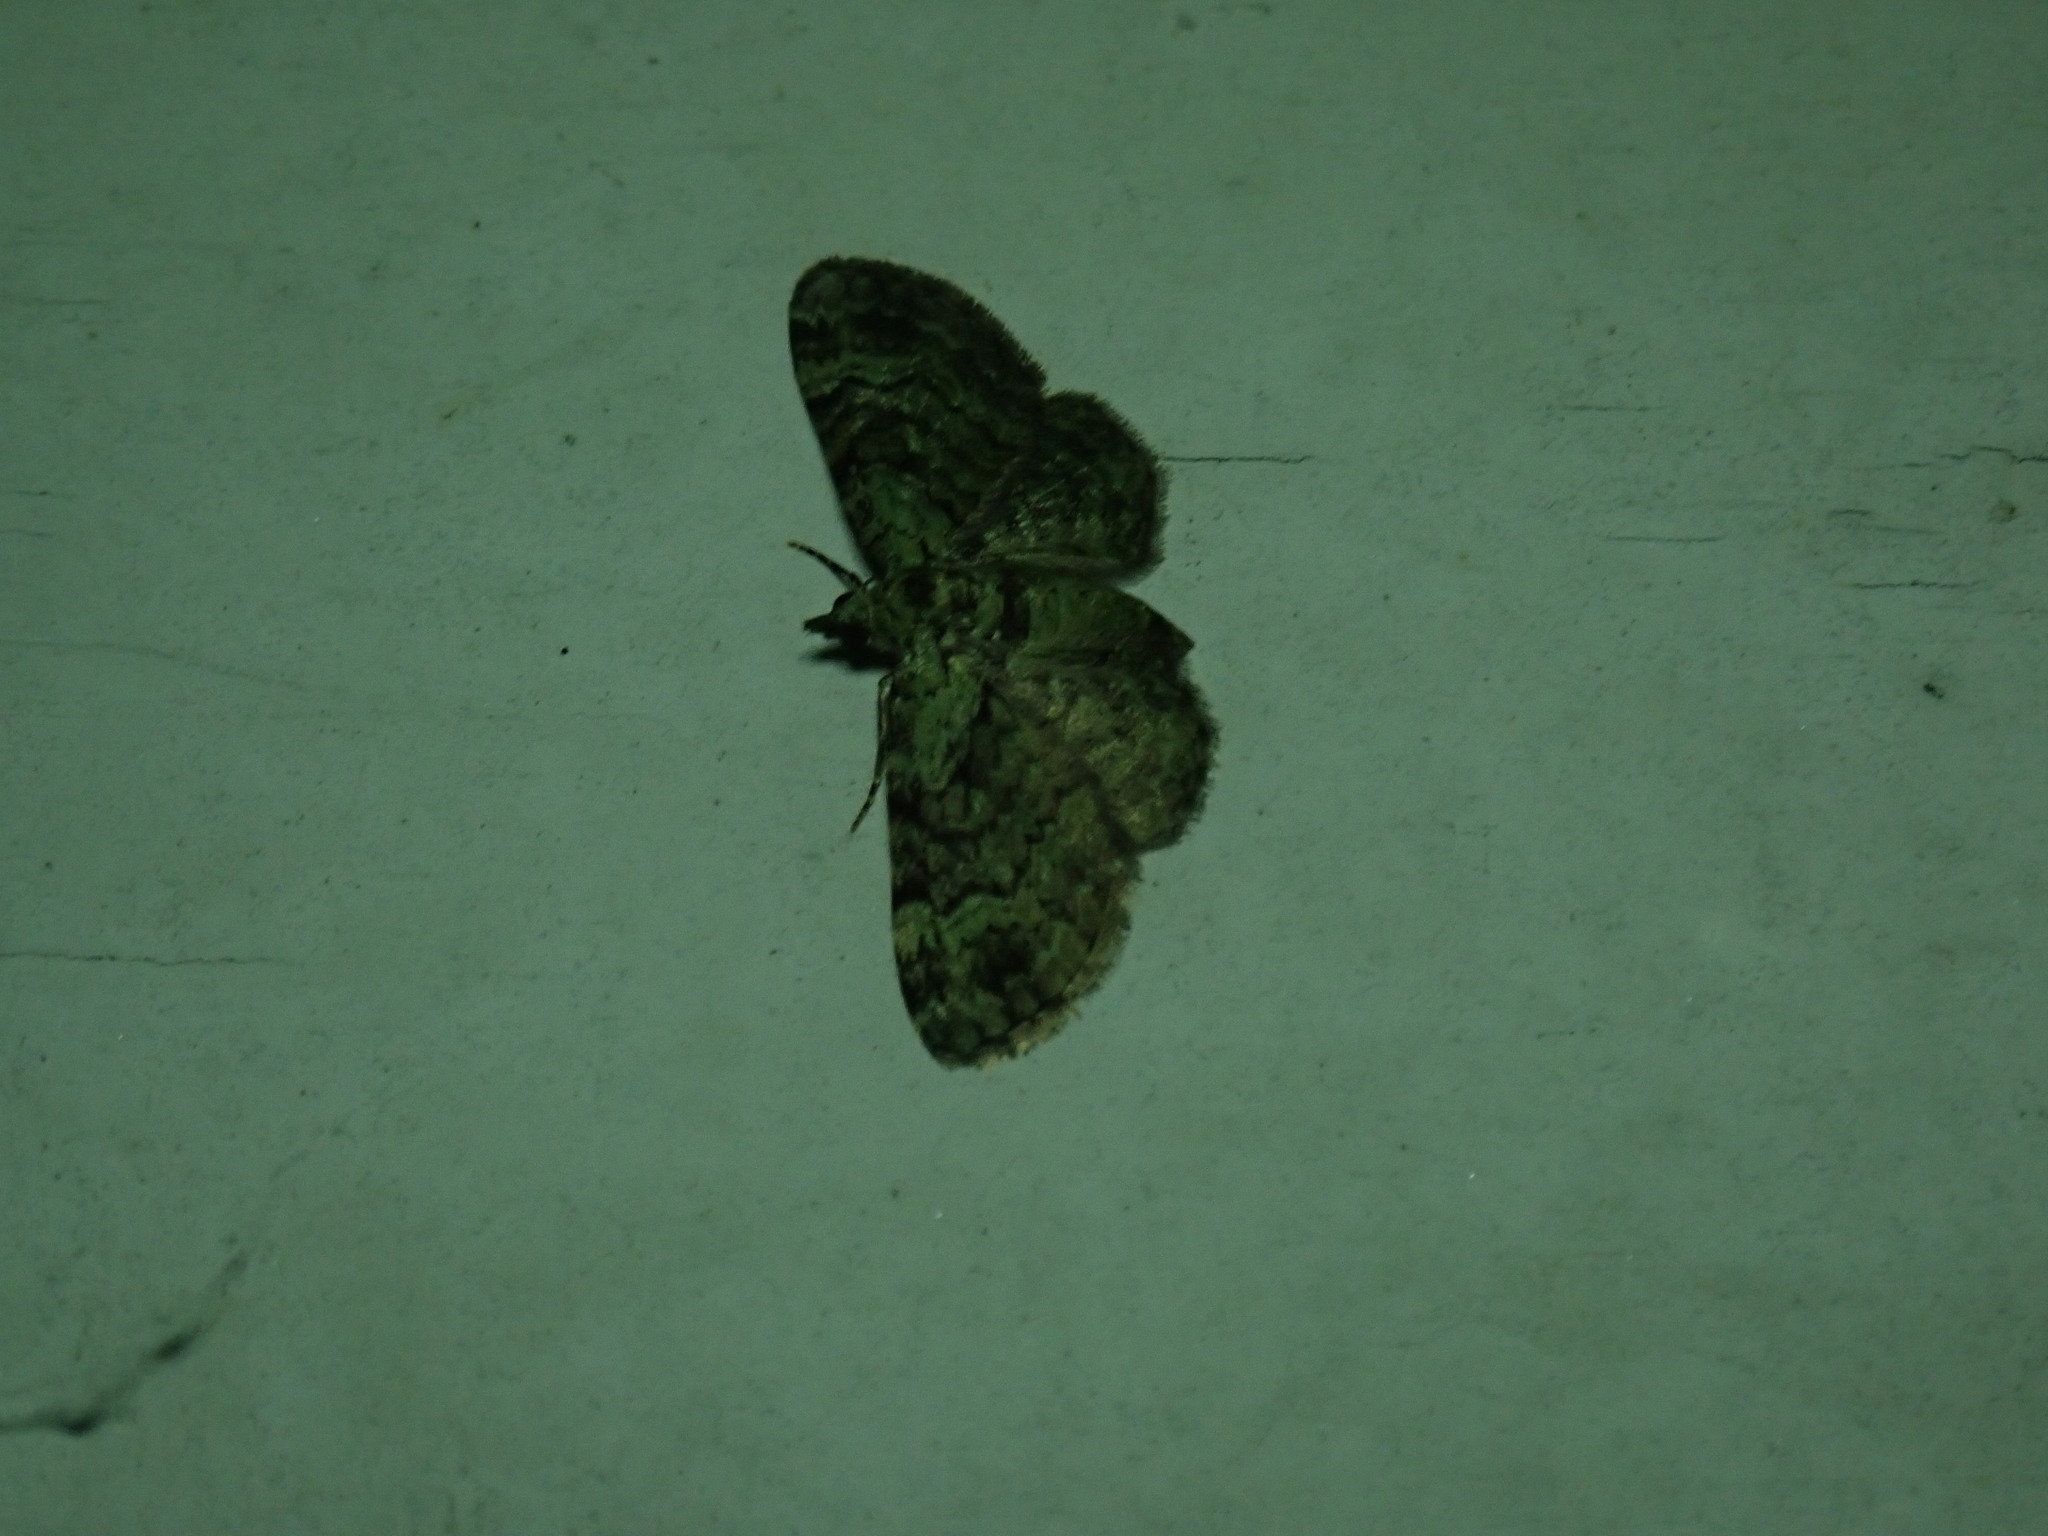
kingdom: Animalia
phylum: Arthropoda
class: Insecta
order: Lepidoptera
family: Geometridae
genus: Pasiphila
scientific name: Pasiphila rectangulata
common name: Green pug
